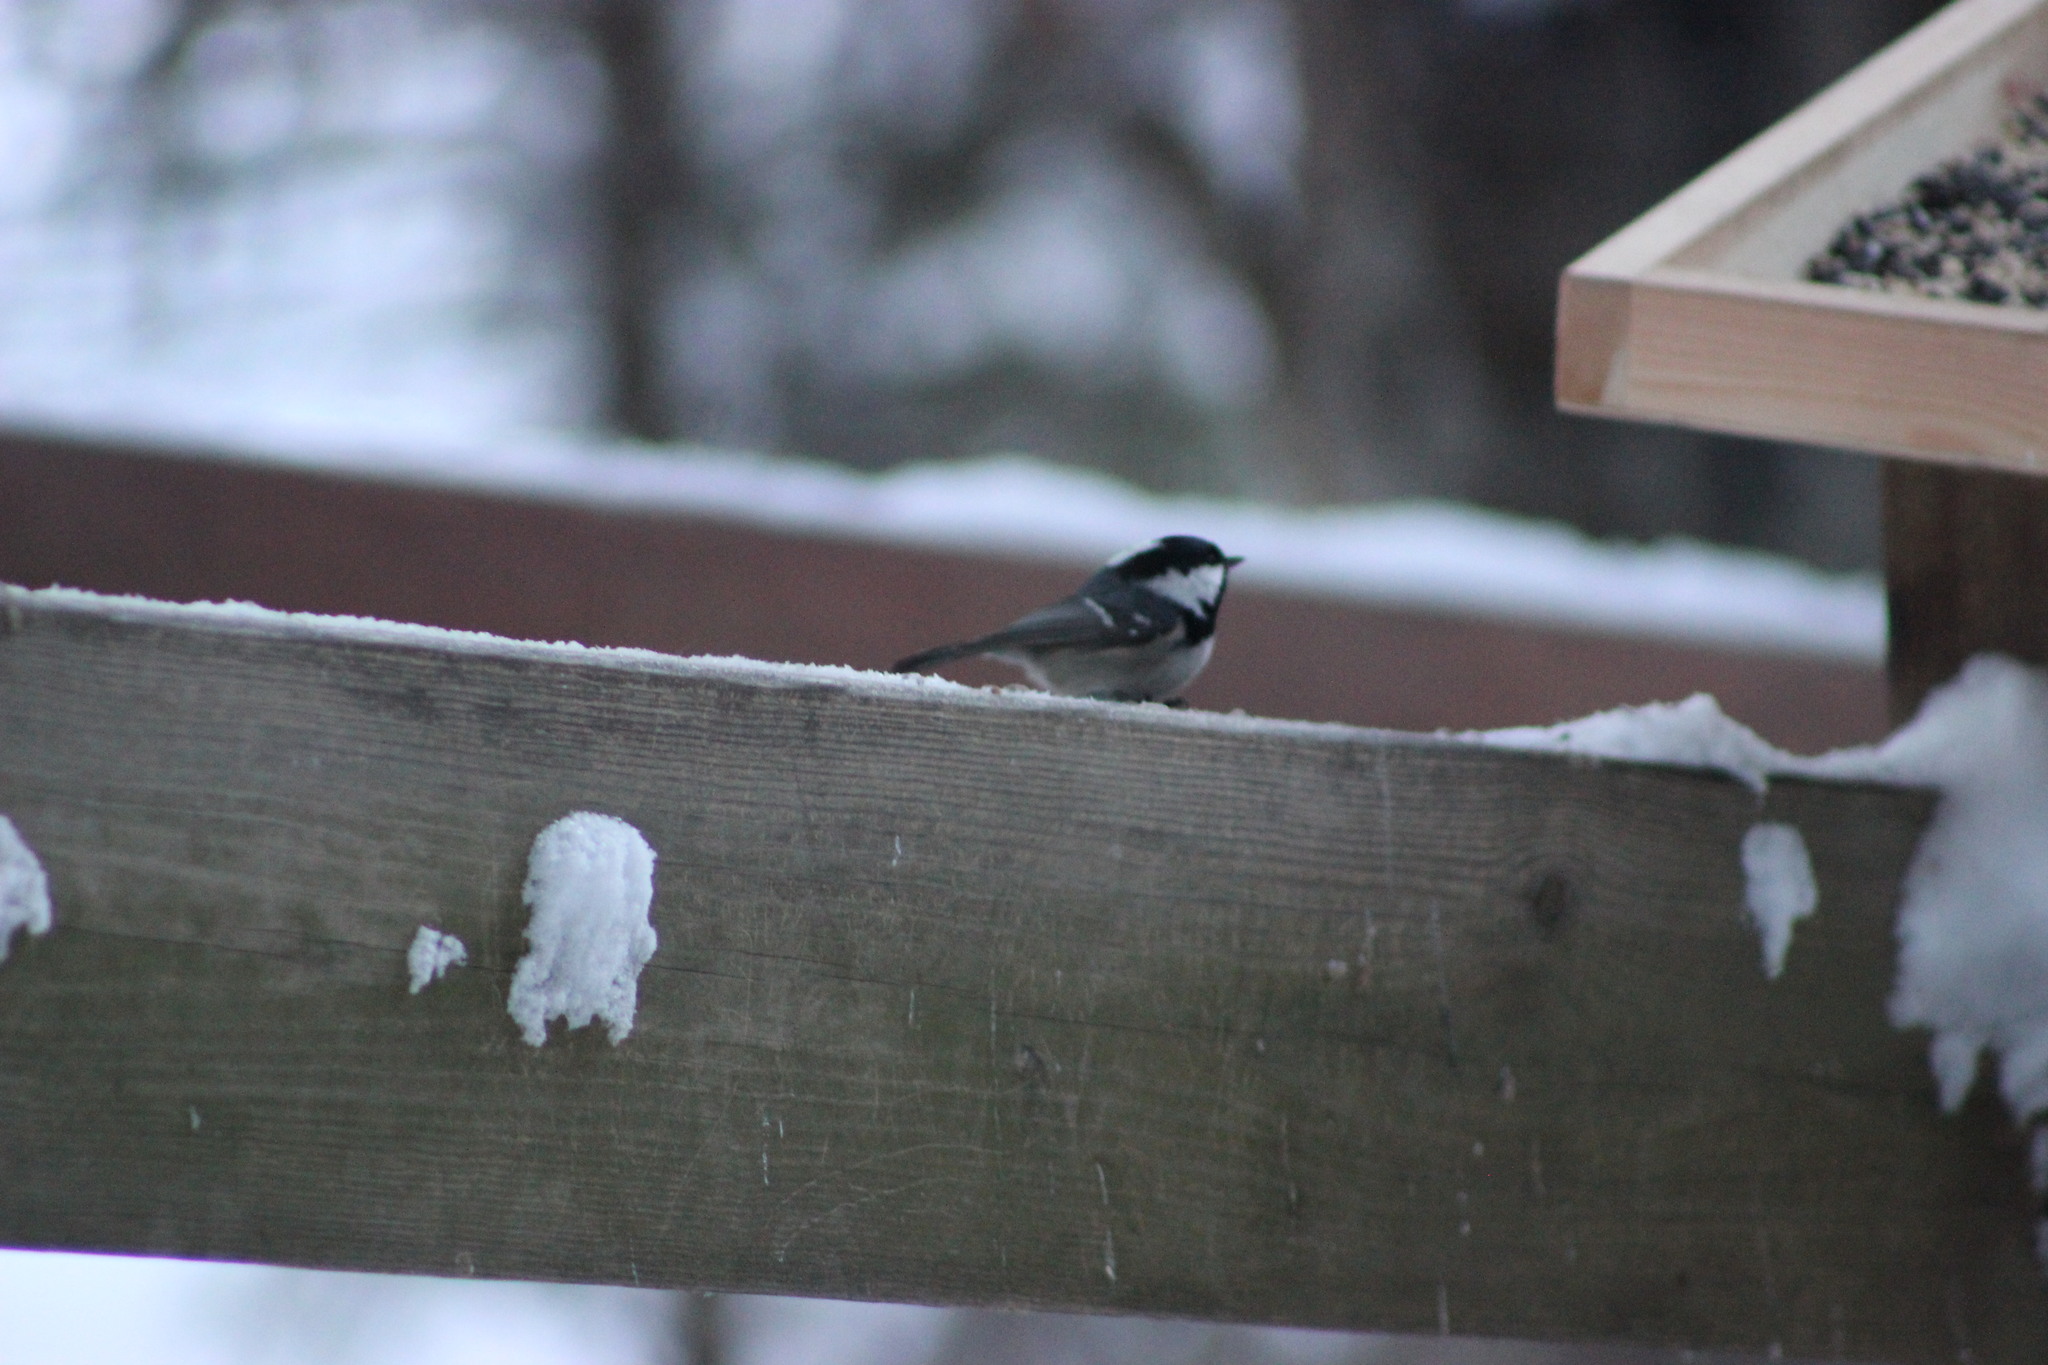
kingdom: Animalia
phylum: Chordata
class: Aves
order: Passeriformes
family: Paridae
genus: Periparus
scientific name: Periparus ater
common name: Coal tit
